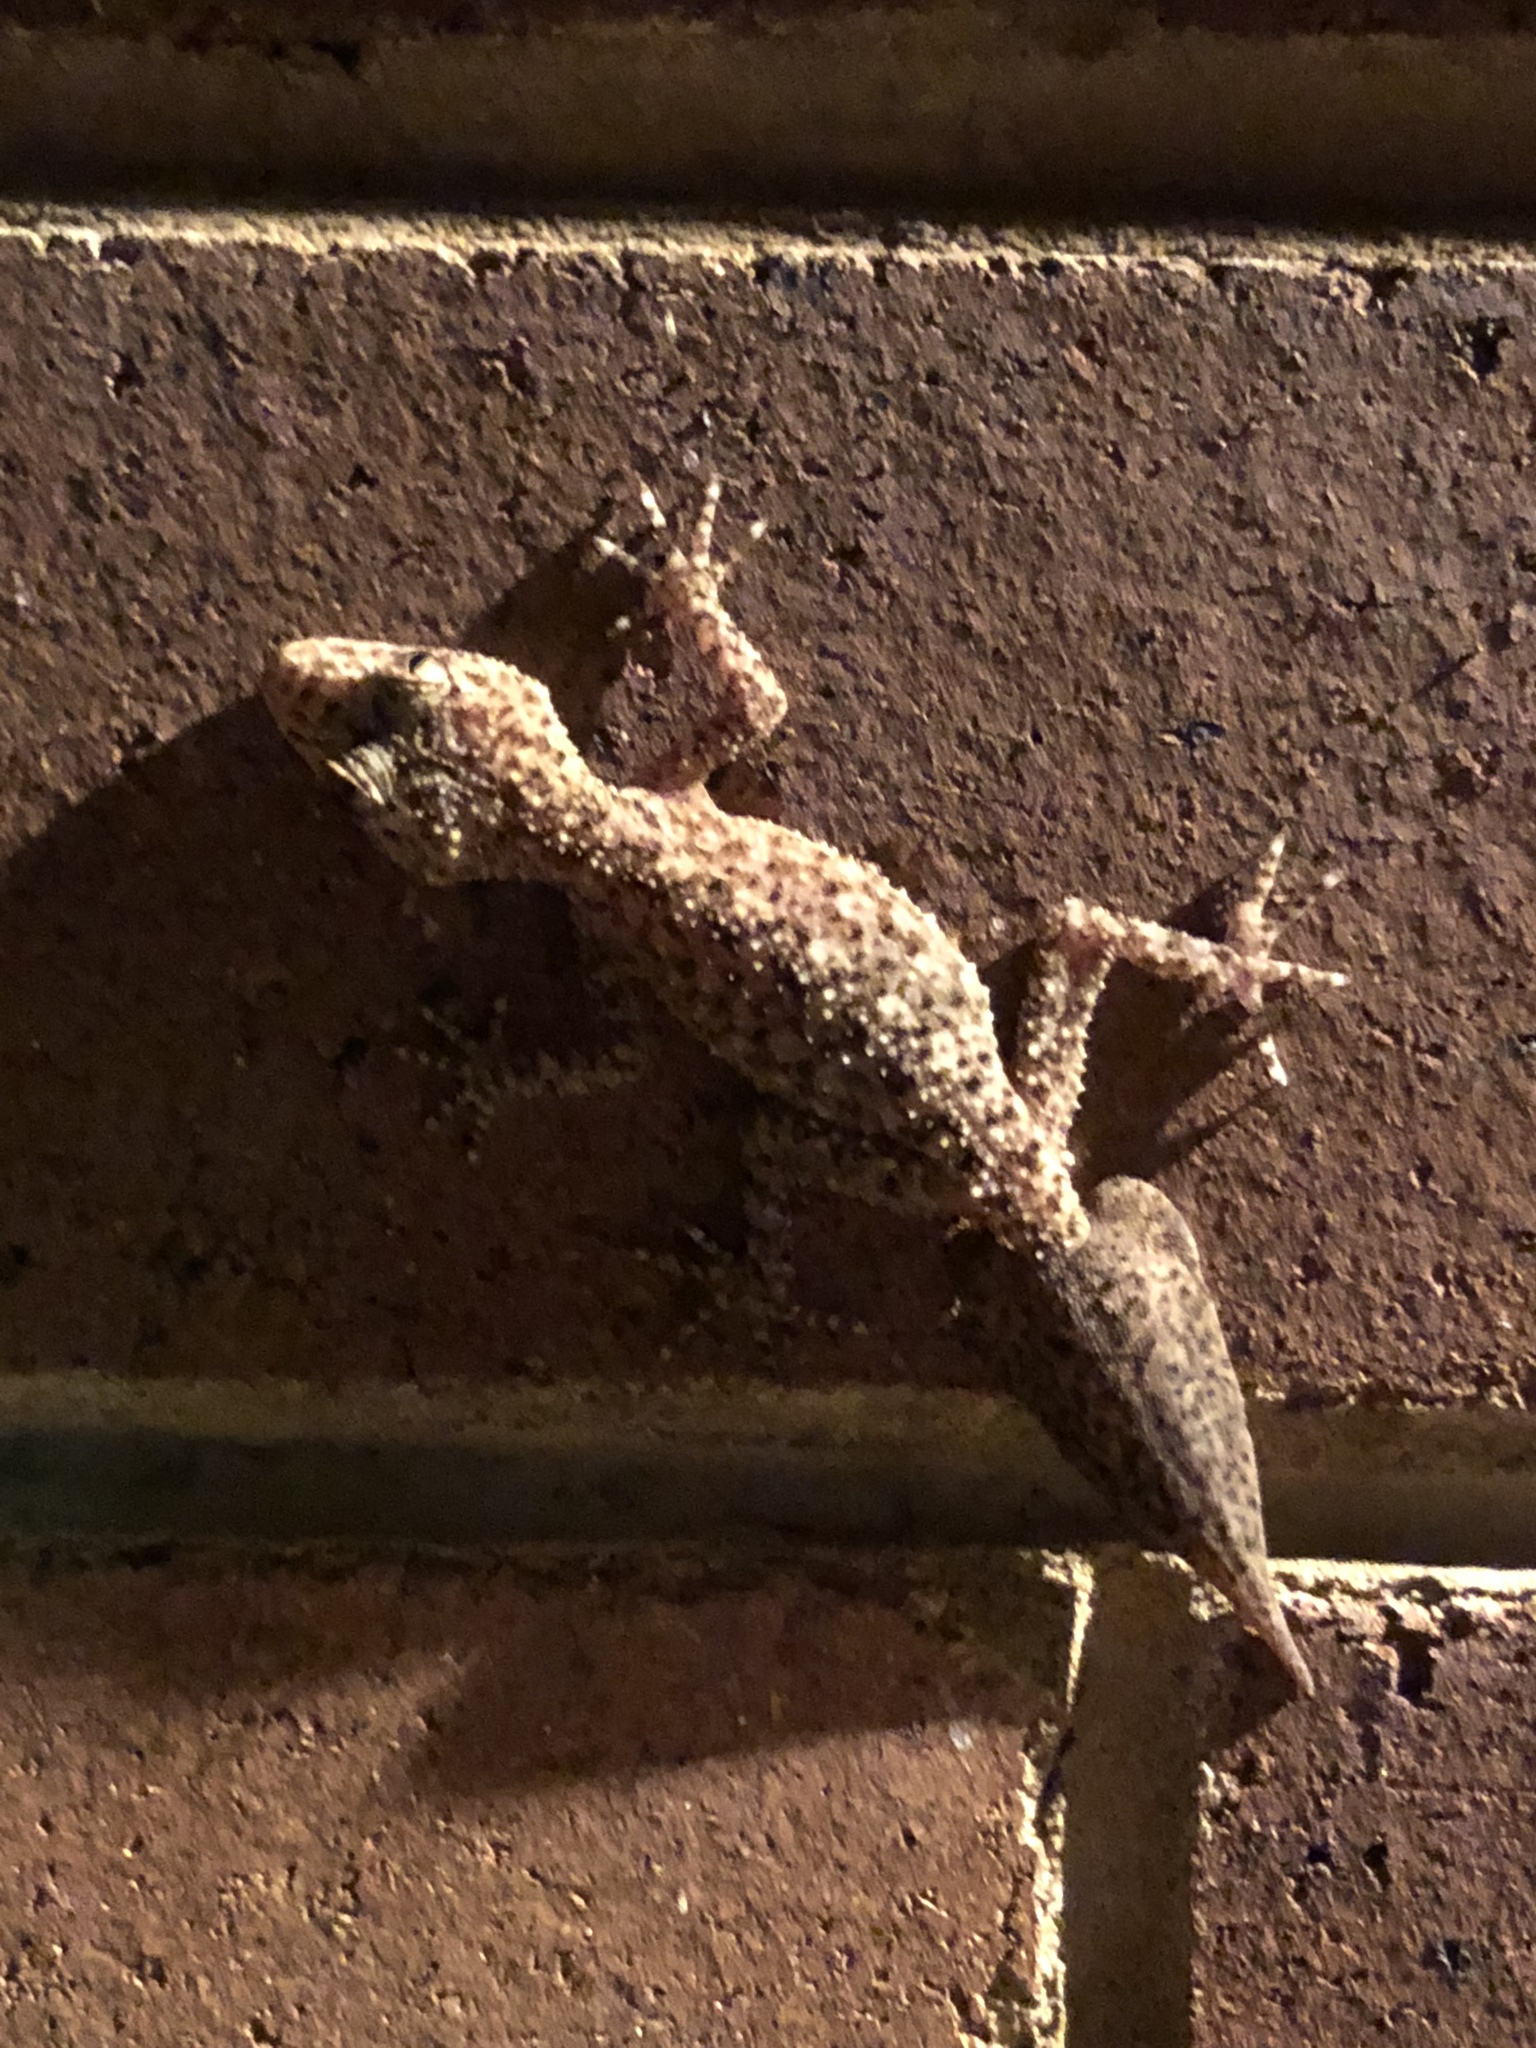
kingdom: Animalia
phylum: Chordata
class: Squamata
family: Carphodactylidae
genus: Phyllurus
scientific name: Phyllurus platurus
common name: Broad-tailed gecko
